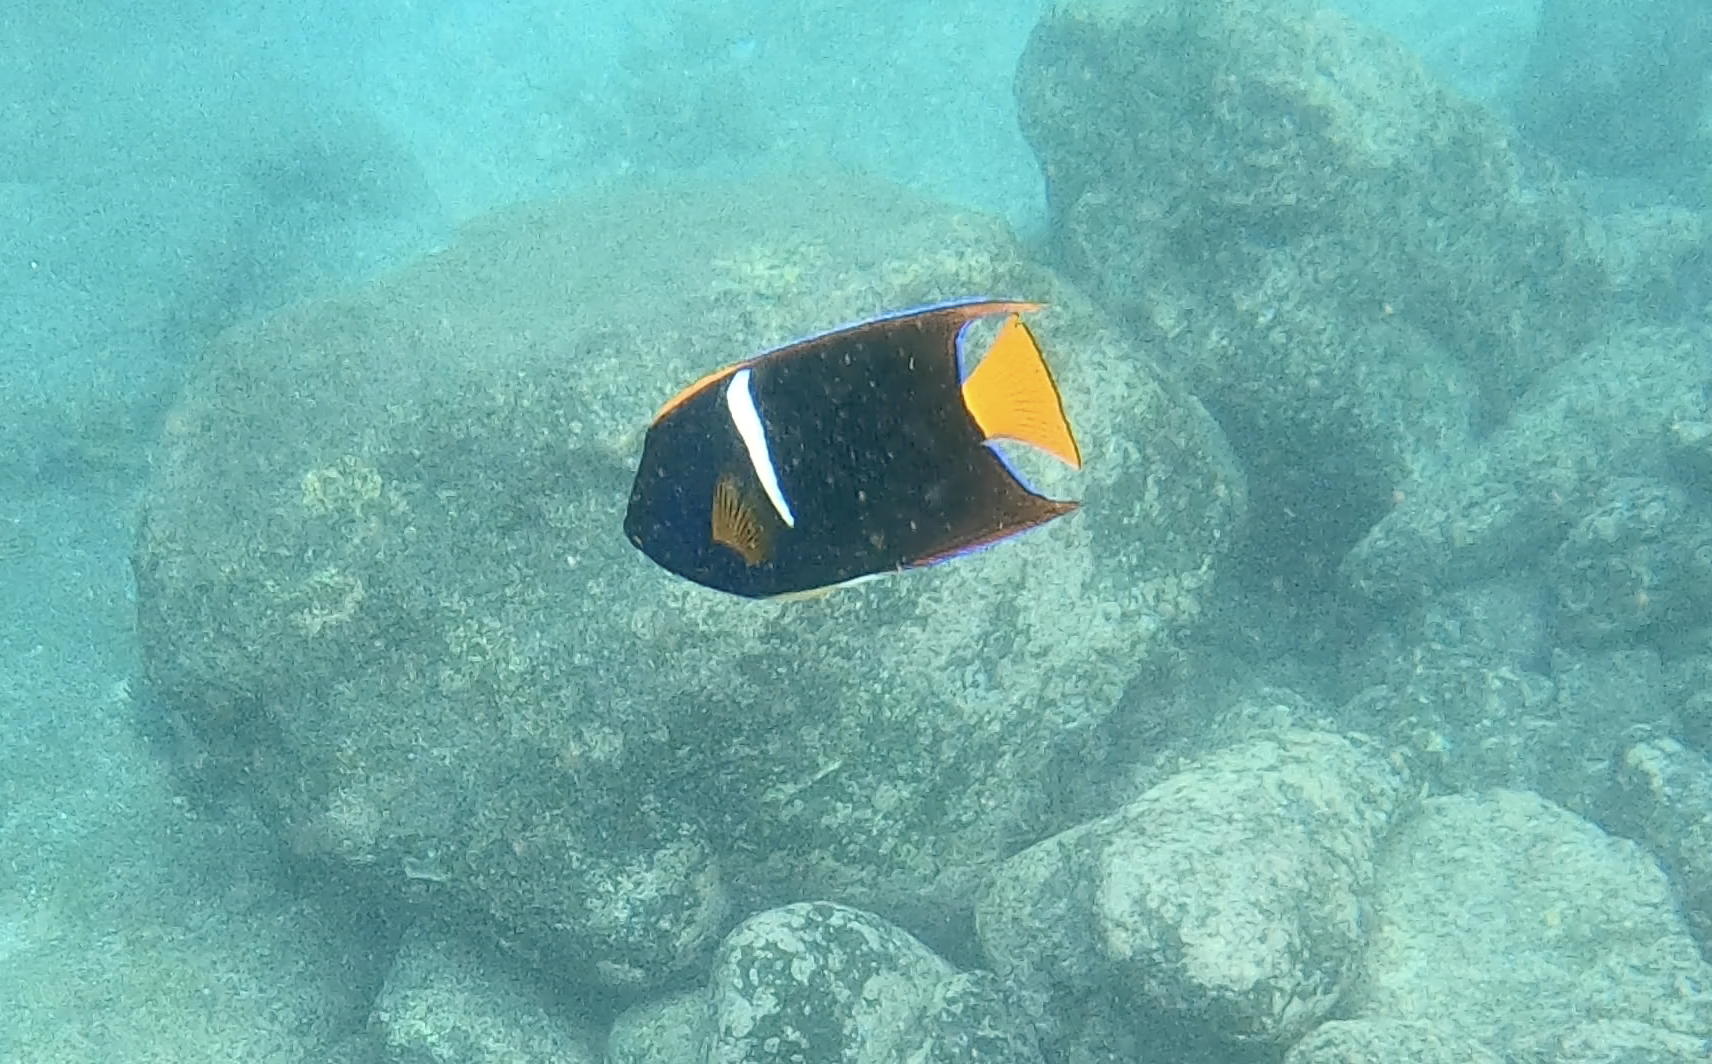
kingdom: Animalia
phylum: Chordata
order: Perciformes
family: Pomacanthidae
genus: Holacanthus
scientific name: Holacanthus passer
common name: King angelfish
